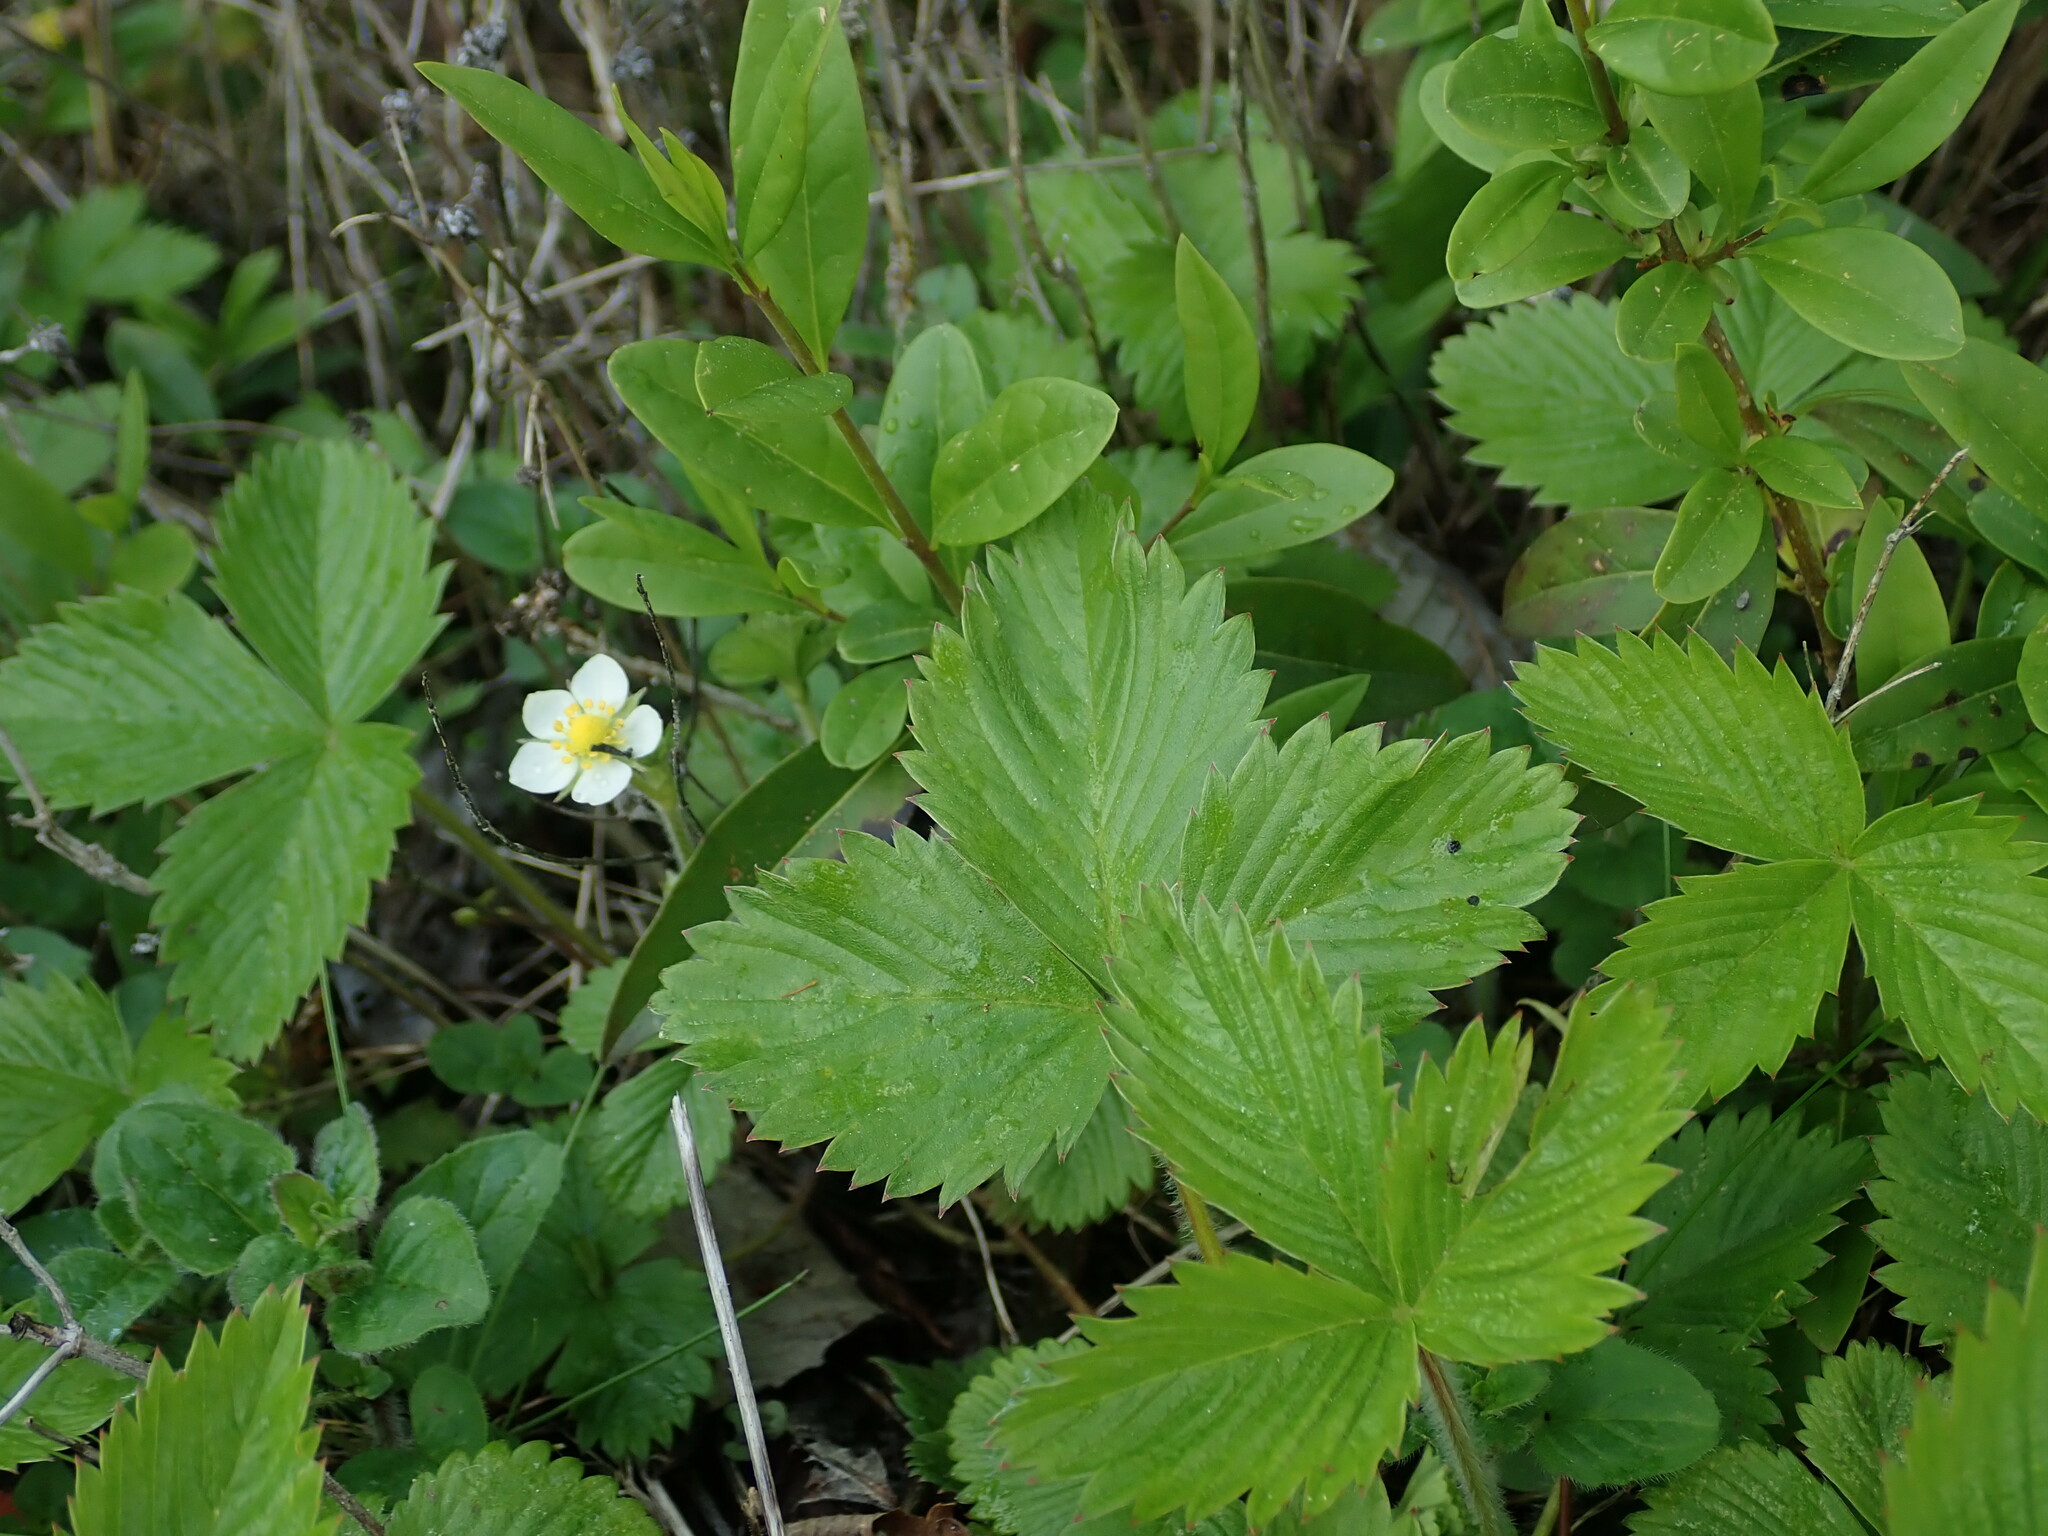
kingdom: Plantae
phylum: Tracheophyta
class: Magnoliopsida
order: Rosales
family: Rosaceae
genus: Fragaria
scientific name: Fragaria vesca
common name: Wild strawberry
